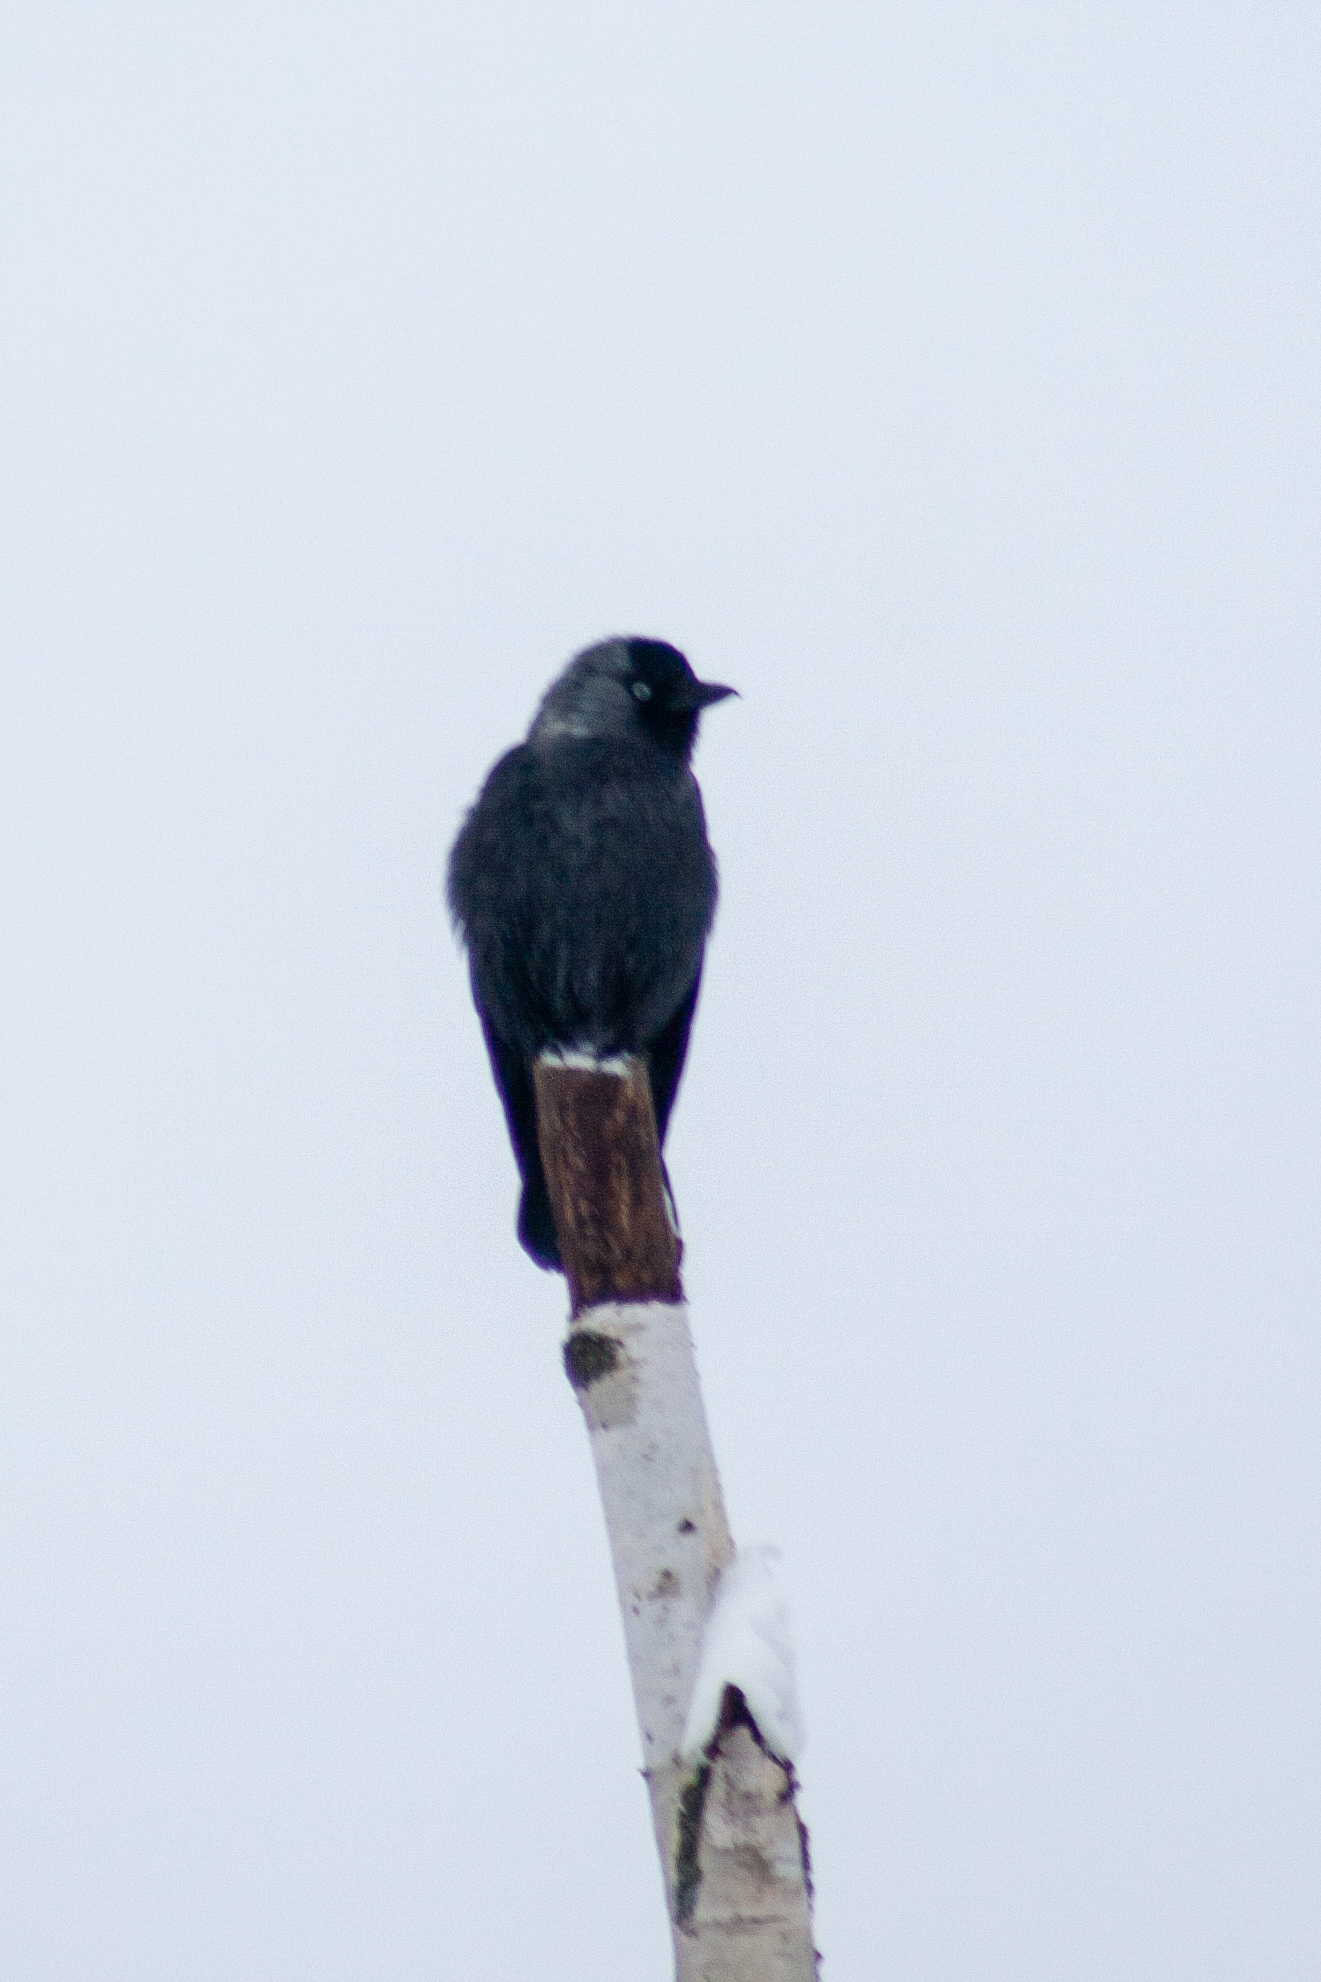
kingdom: Animalia
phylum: Chordata
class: Aves
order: Passeriformes
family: Corvidae
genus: Coloeus
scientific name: Coloeus monedula
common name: Western jackdaw
